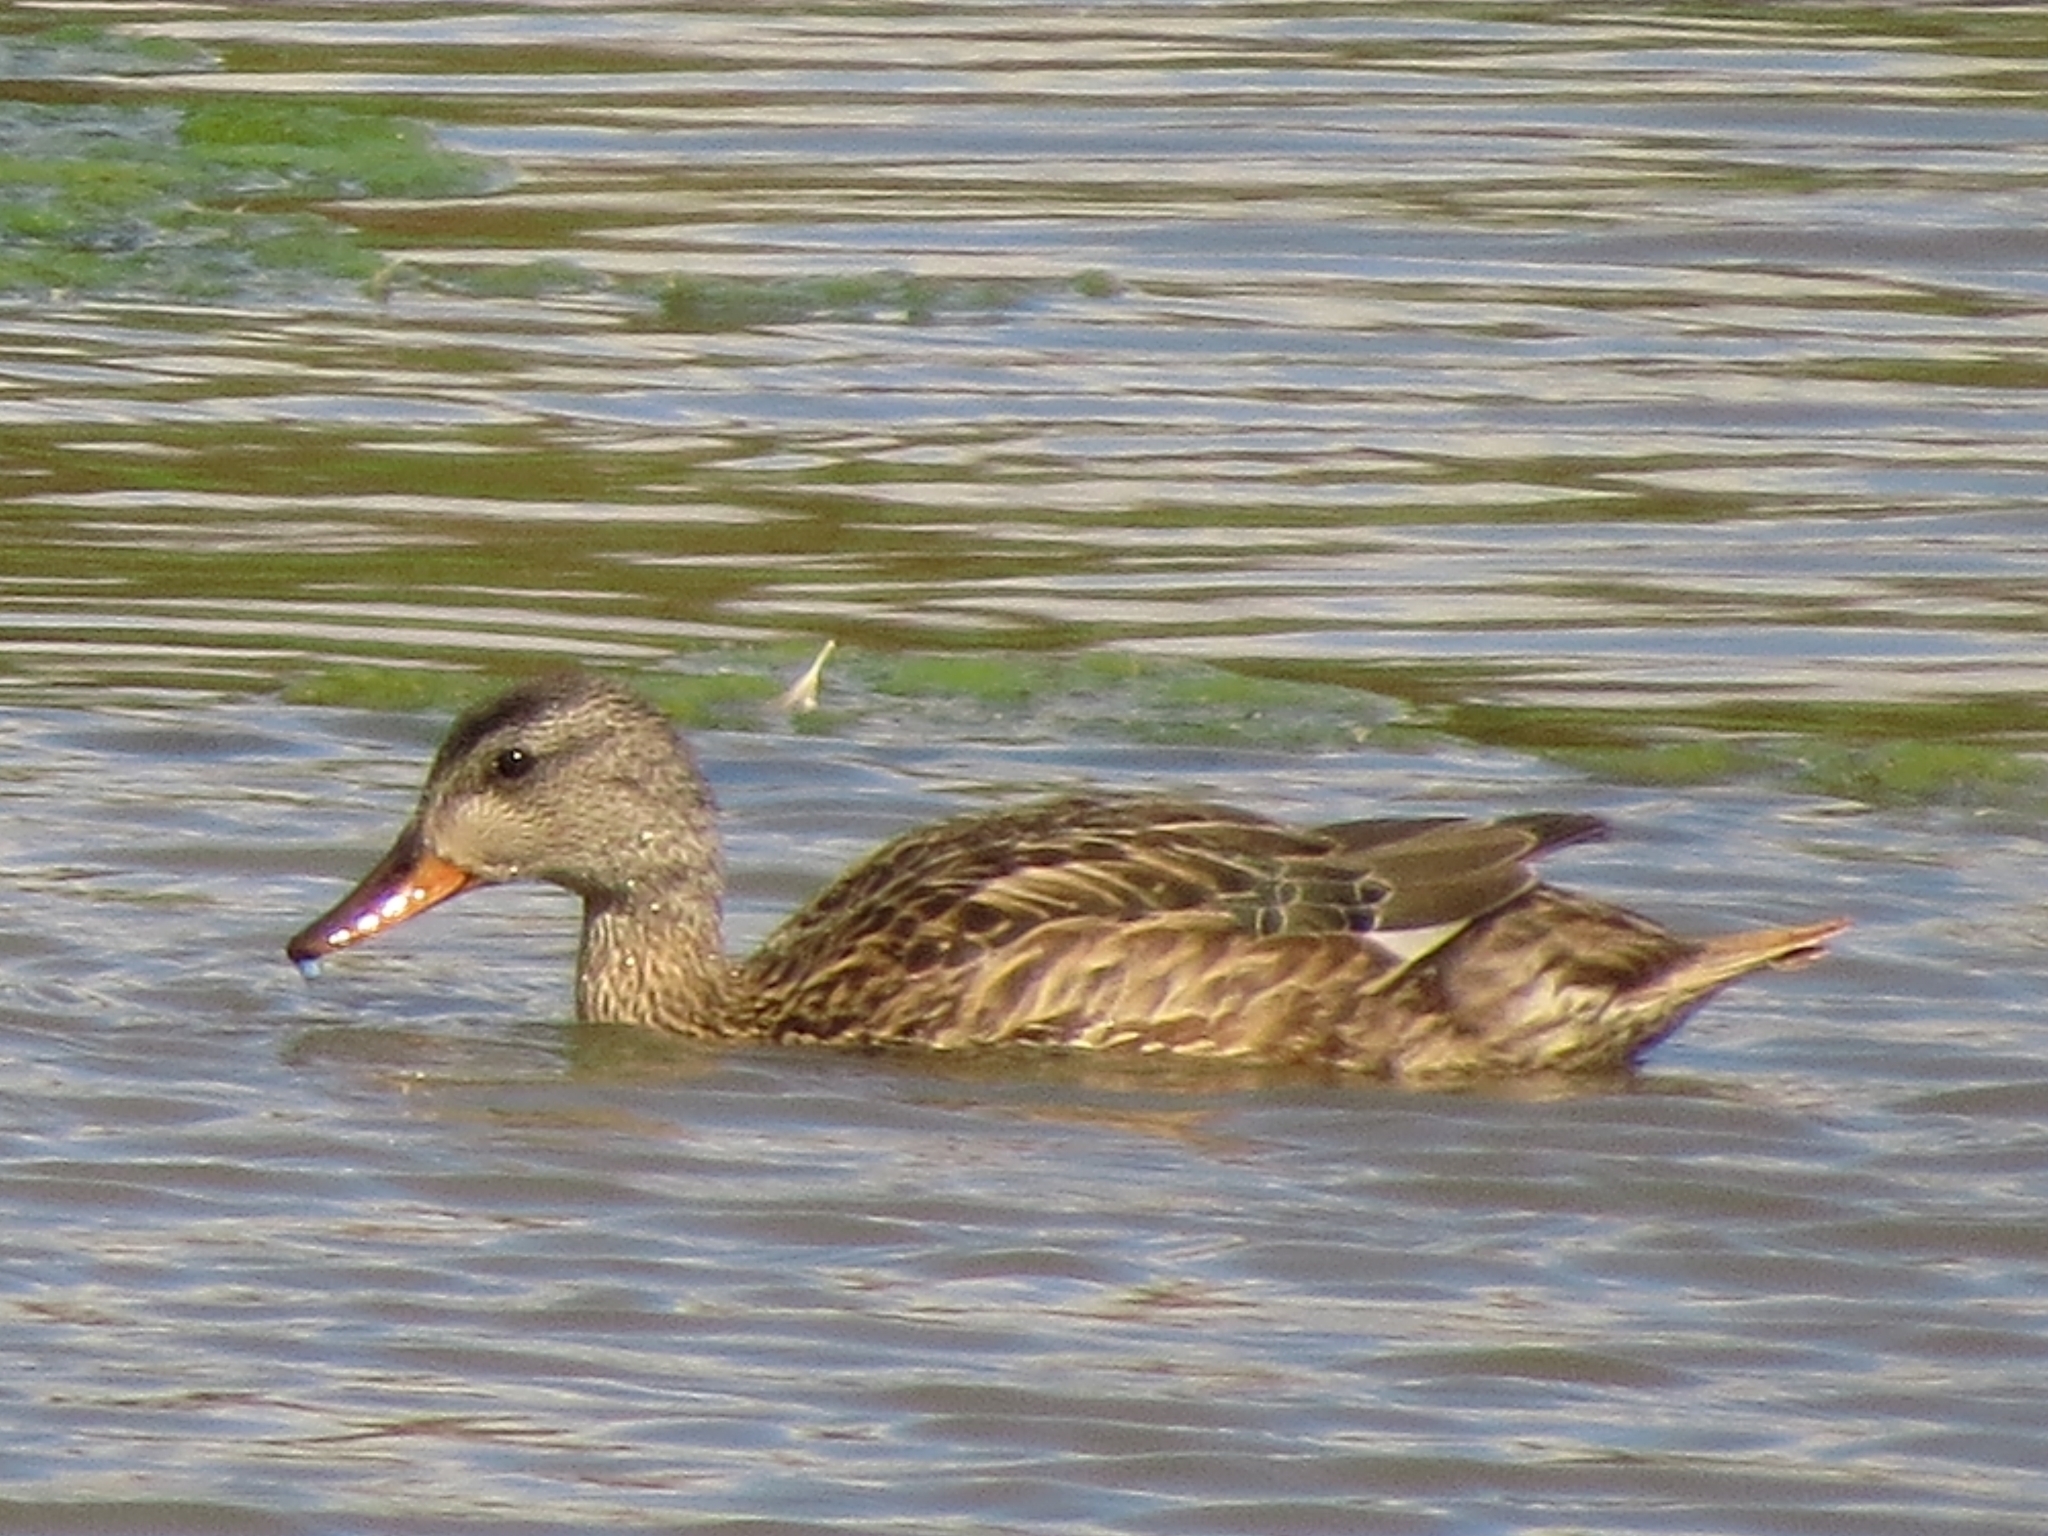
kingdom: Animalia
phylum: Chordata
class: Aves
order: Anseriformes
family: Anatidae
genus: Mareca
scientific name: Mareca strepera
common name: Gadwall
